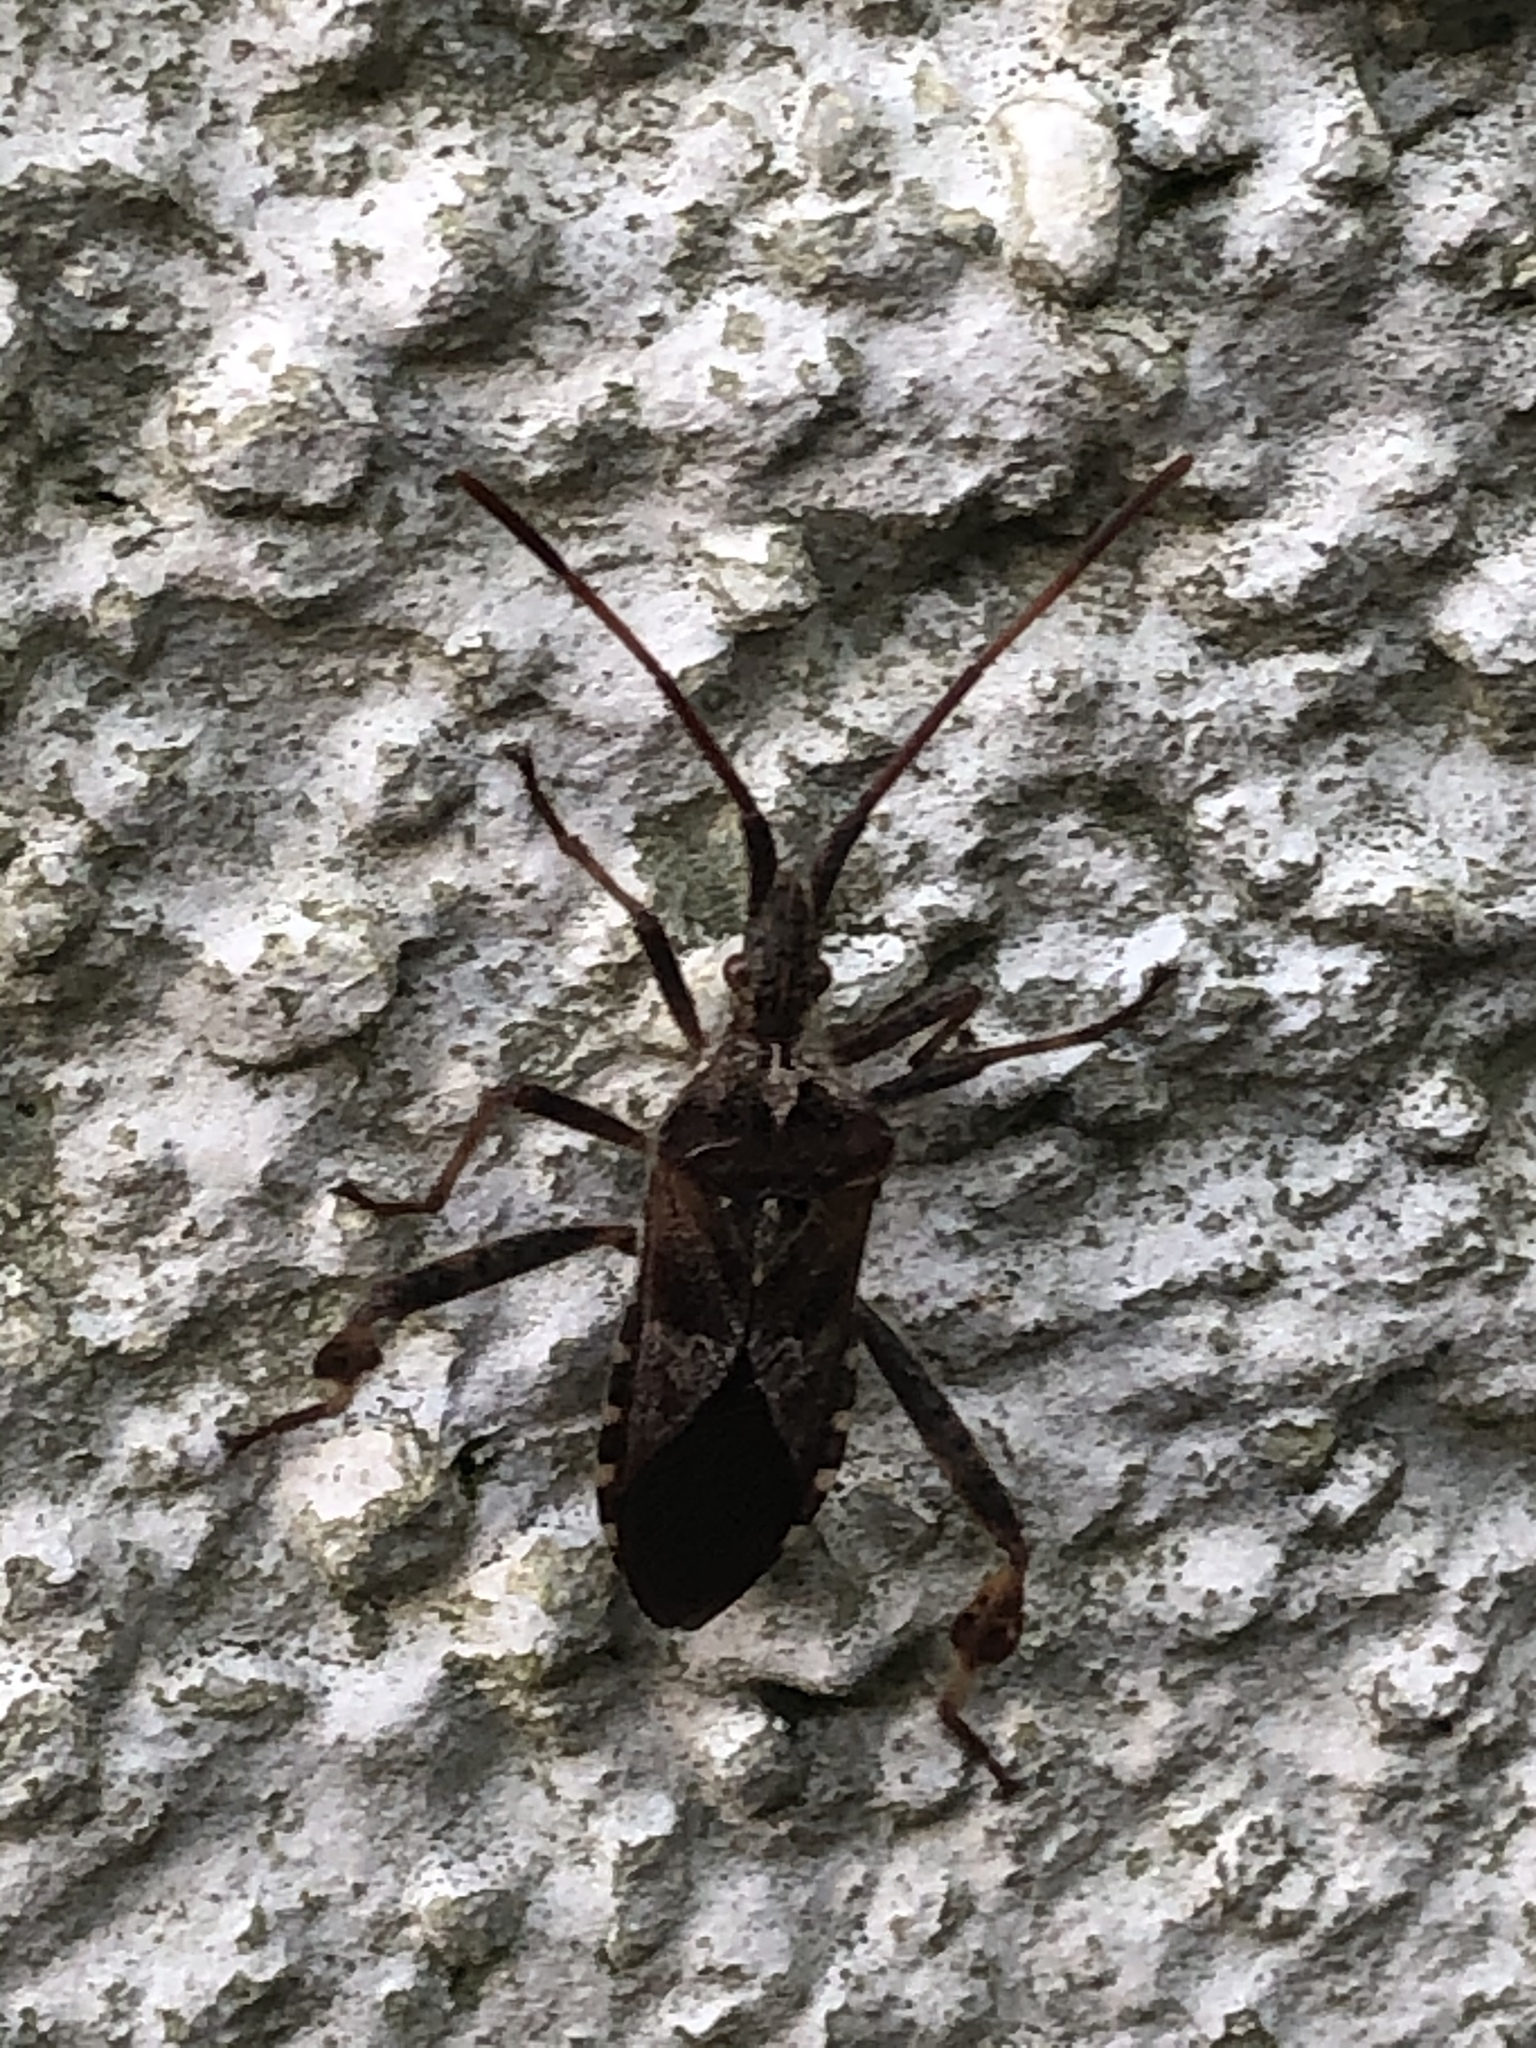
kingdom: Animalia
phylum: Arthropoda
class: Insecta
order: Hemiptera
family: Coreidae
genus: Leptoglossus
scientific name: Leptoglossus occidentalis
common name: Western conifer-seed bug
